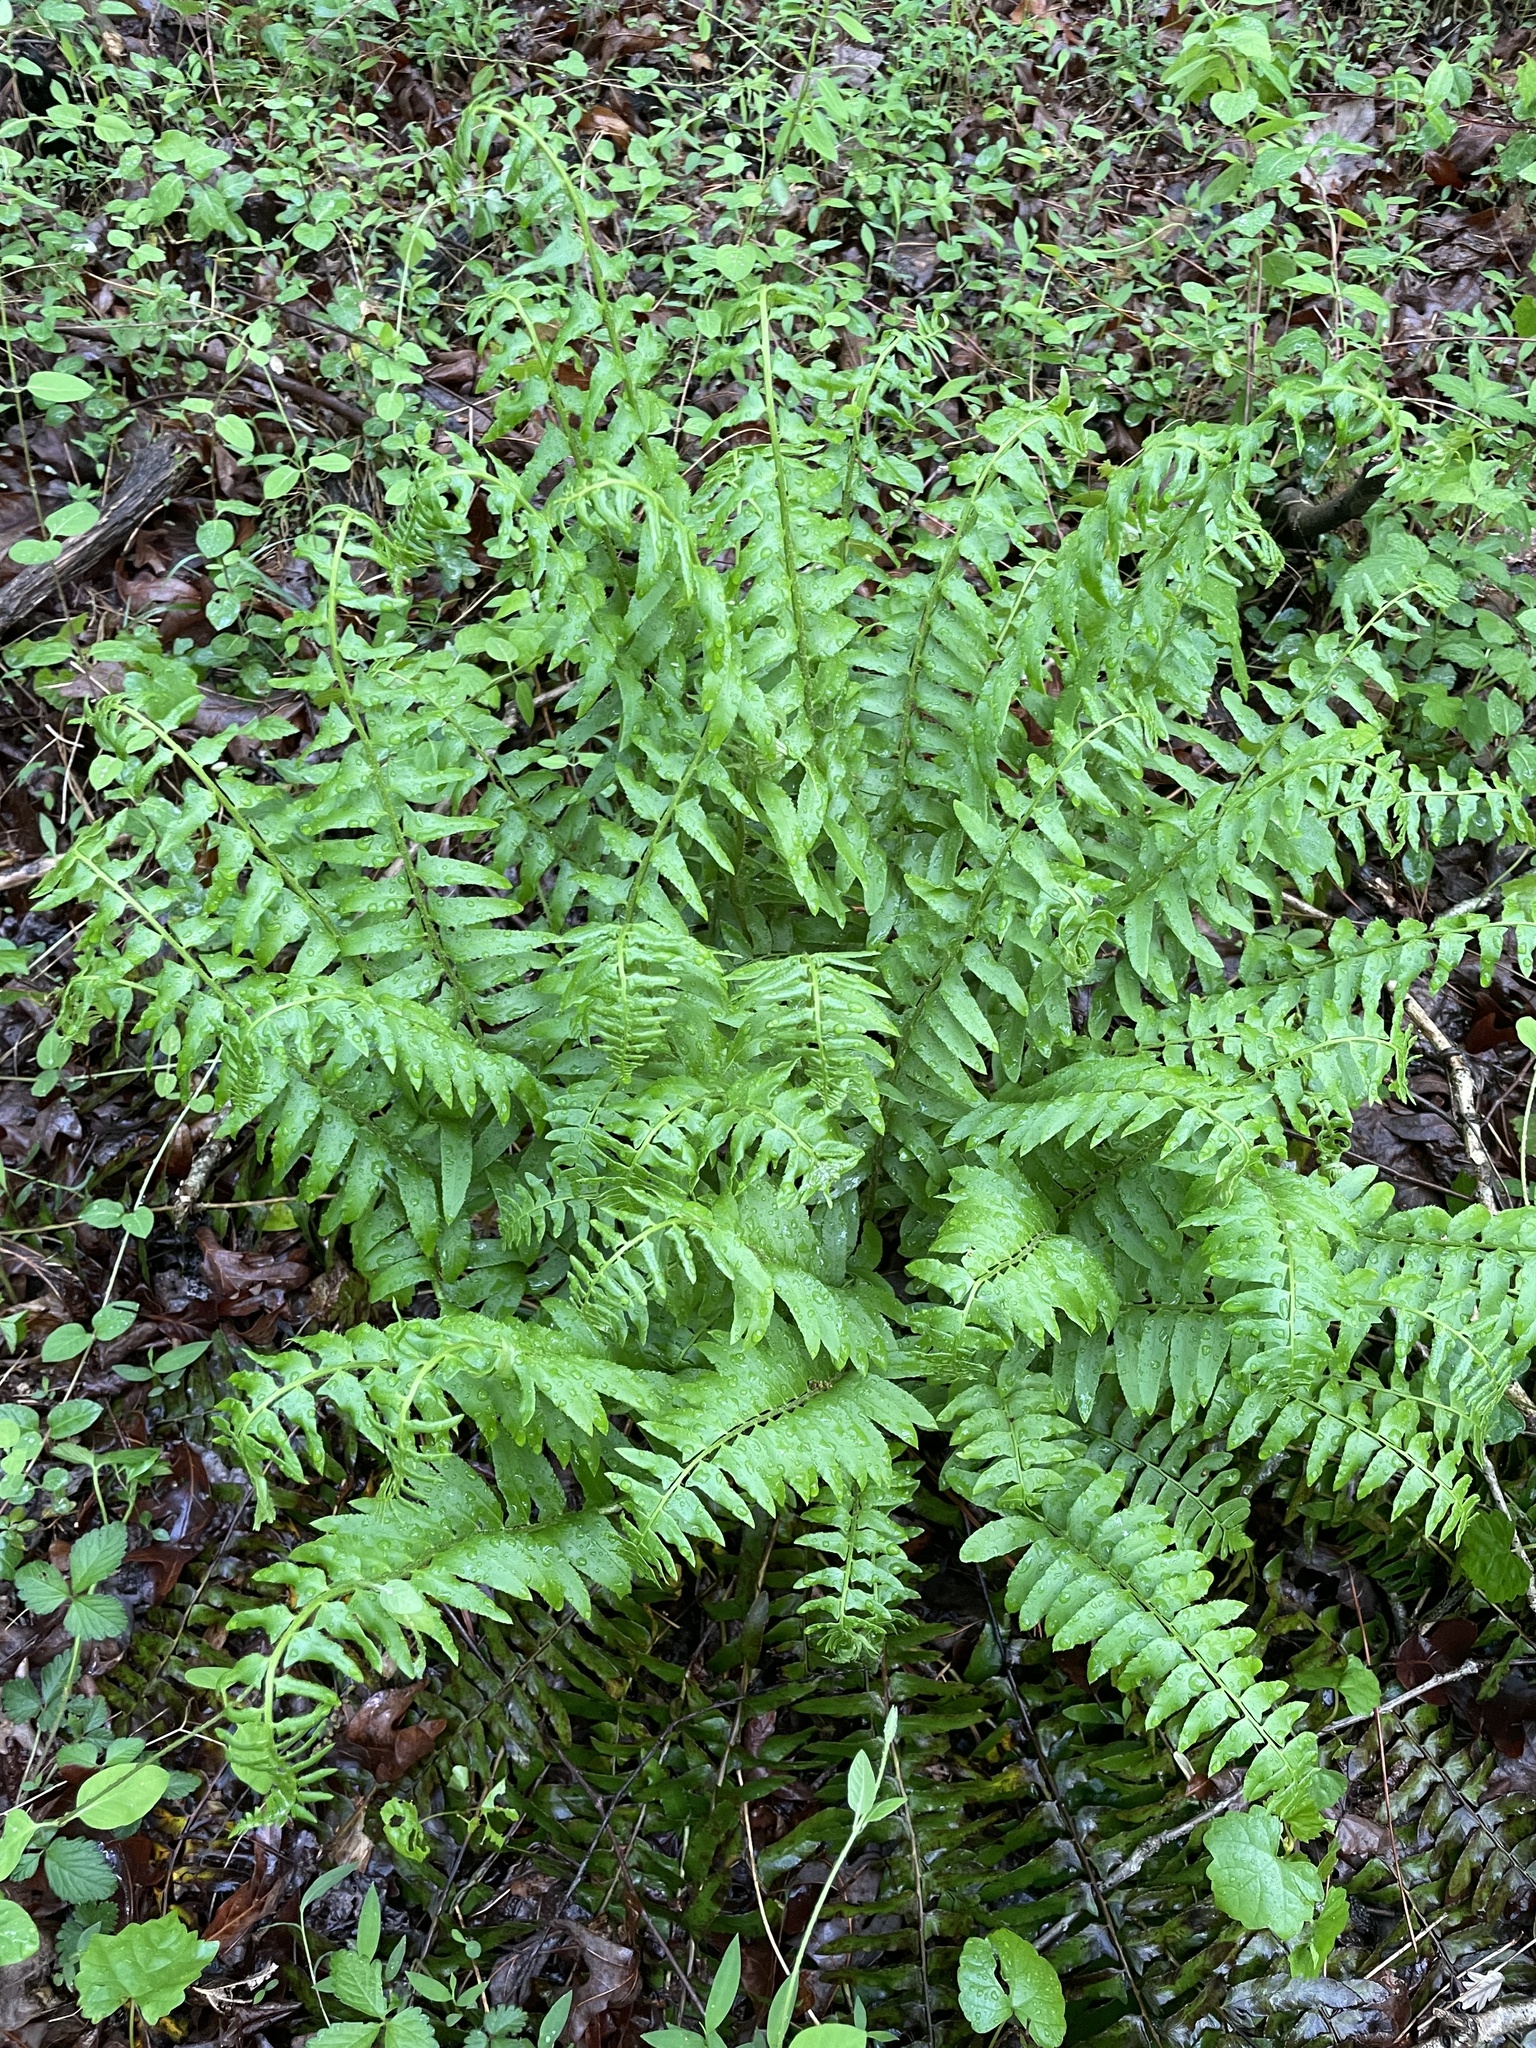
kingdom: Plantae
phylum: Tracheophyta
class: Polypodiopsida
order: Polypodiales
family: Dryopteridaceae
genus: Polystichum
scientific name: Polystichum acrostichoides
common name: Christmas fern
